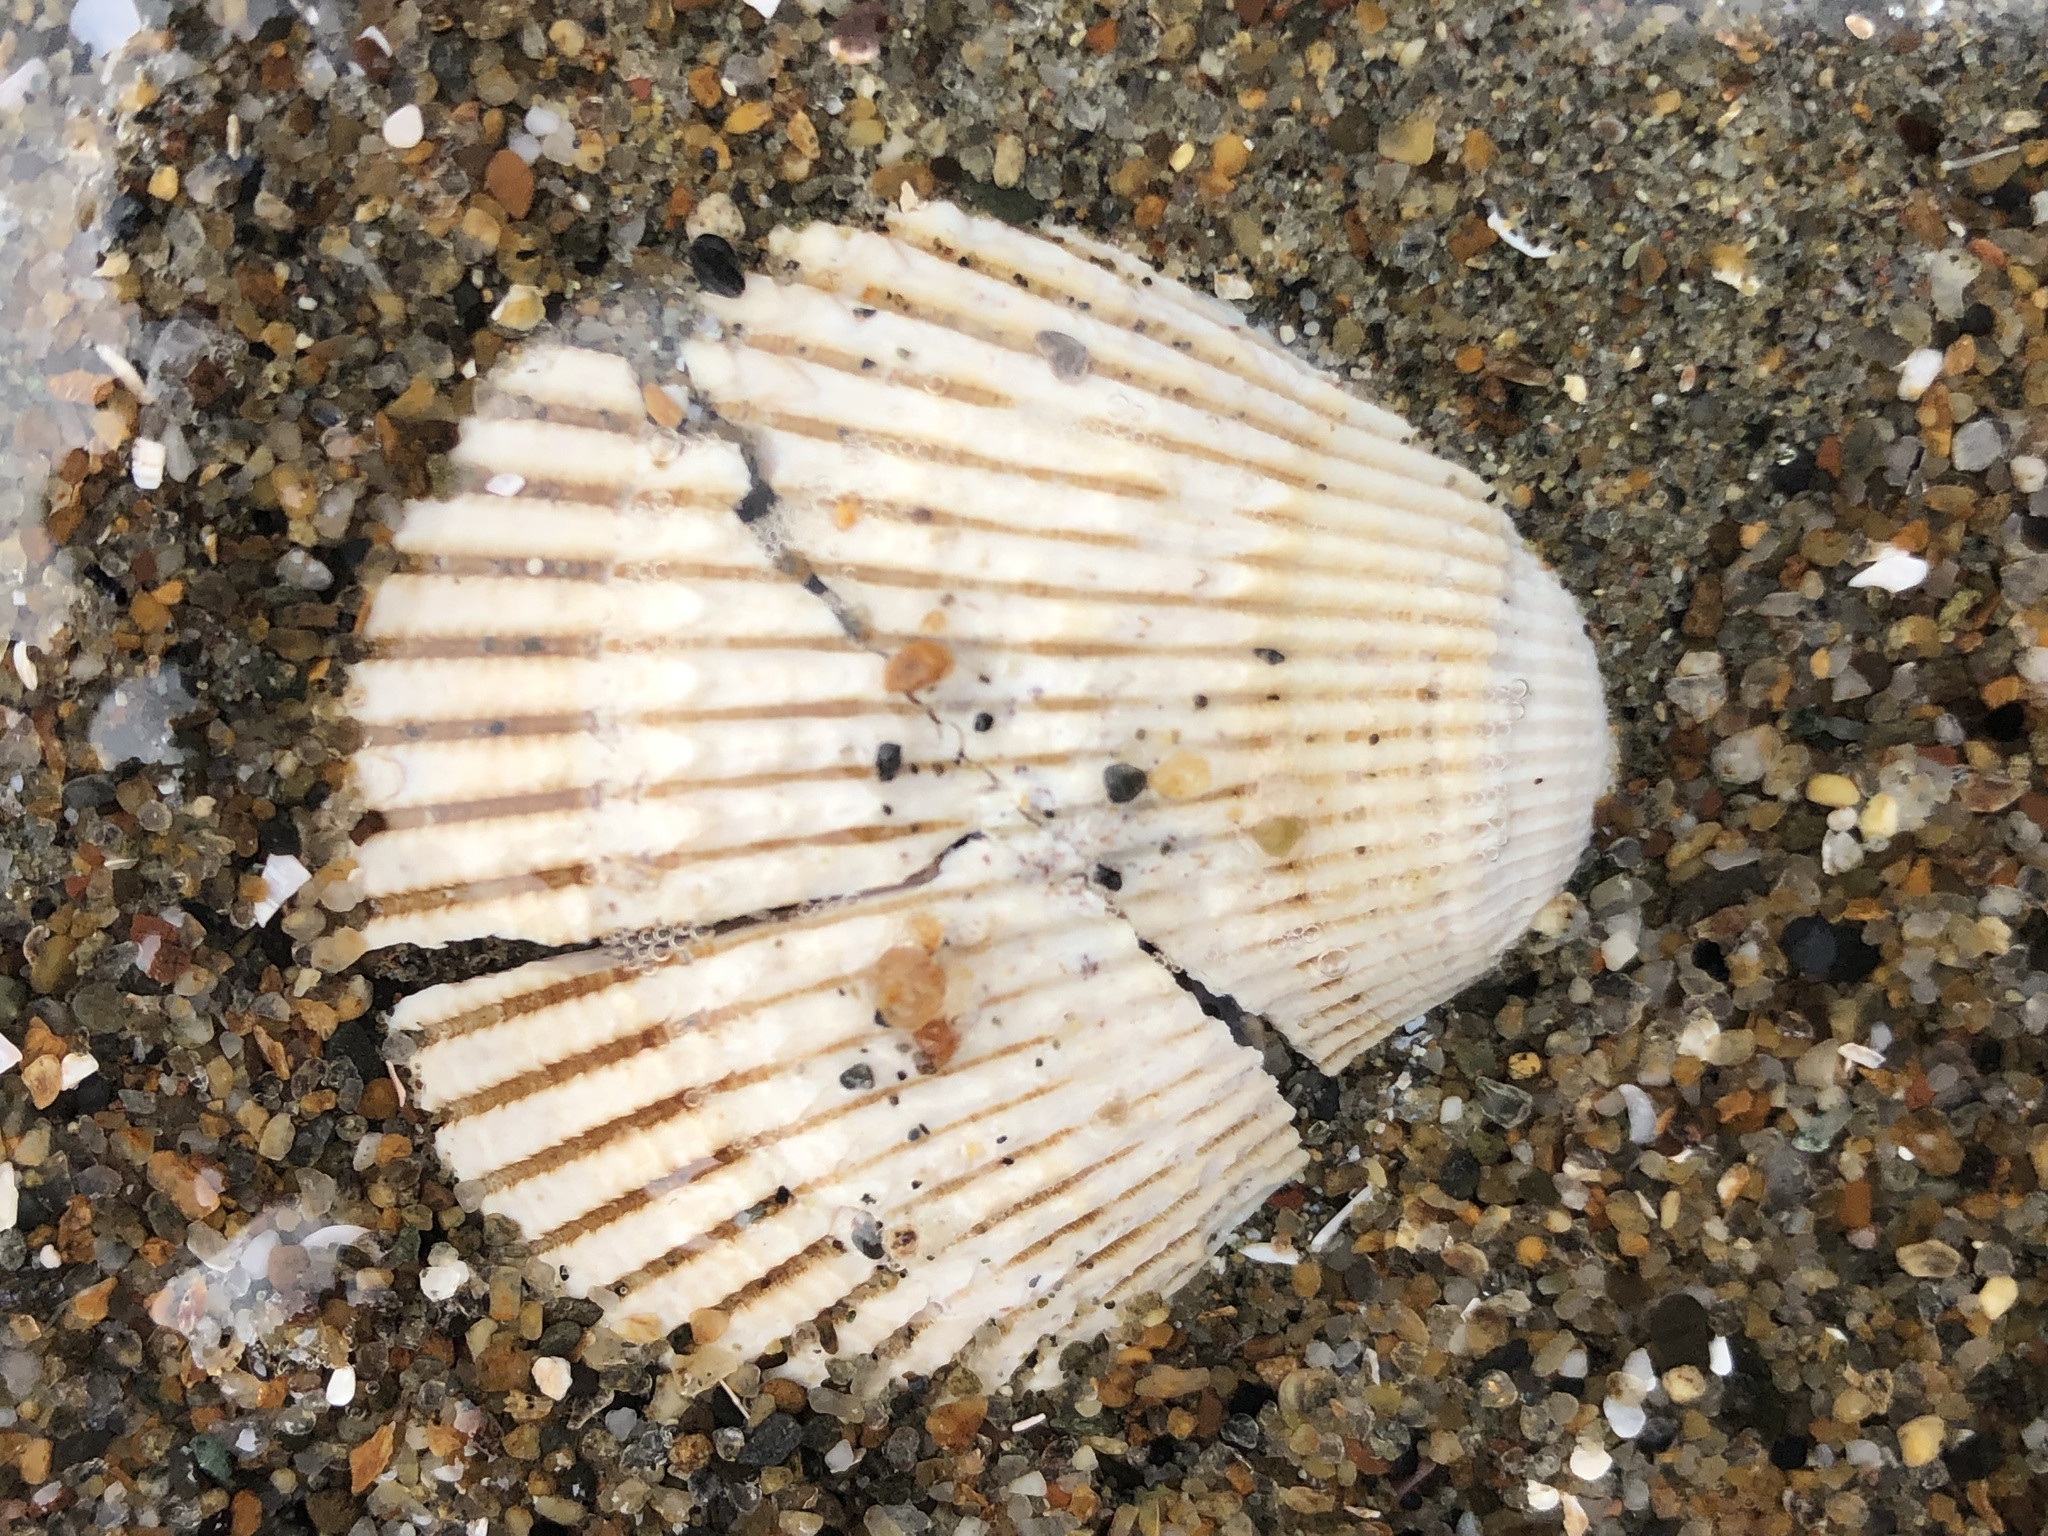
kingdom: Animalia
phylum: Mollusca
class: Bivalvia
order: Cardiida
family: Cardiidae
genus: Clinocardium
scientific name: Clinocardium nuttallii
